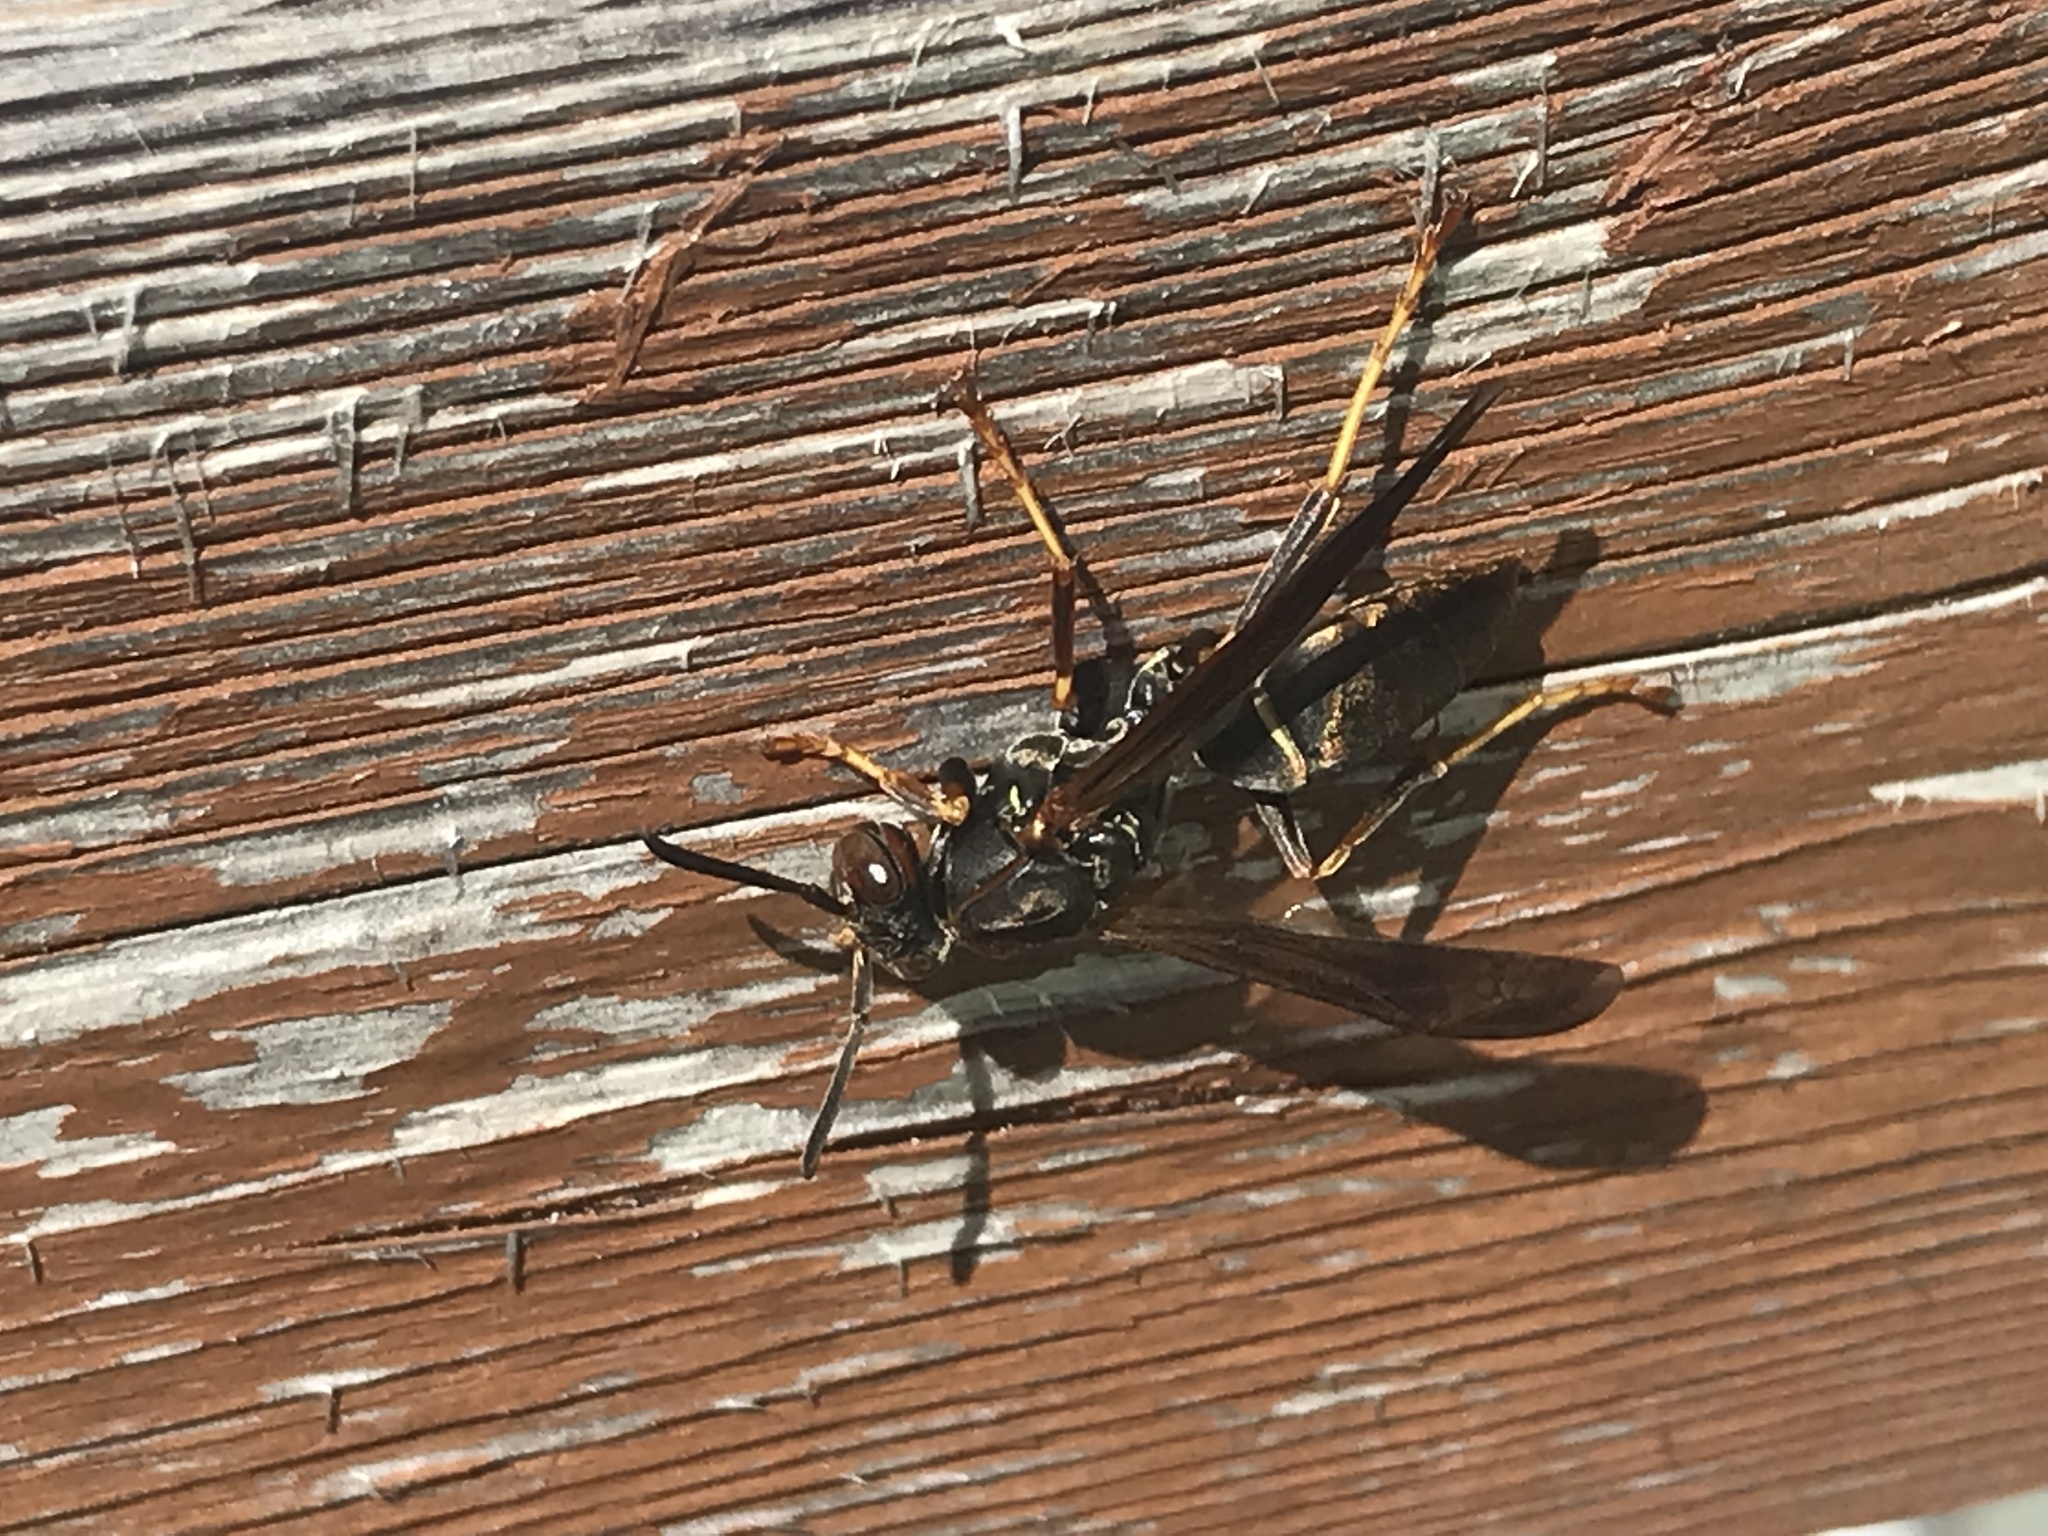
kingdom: Animalia
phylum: Arthropoda
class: Insecta
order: Hymenoptera
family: Eumenidae
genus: Polistes
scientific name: Polistes fuscatus
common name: Dark paper wasp
